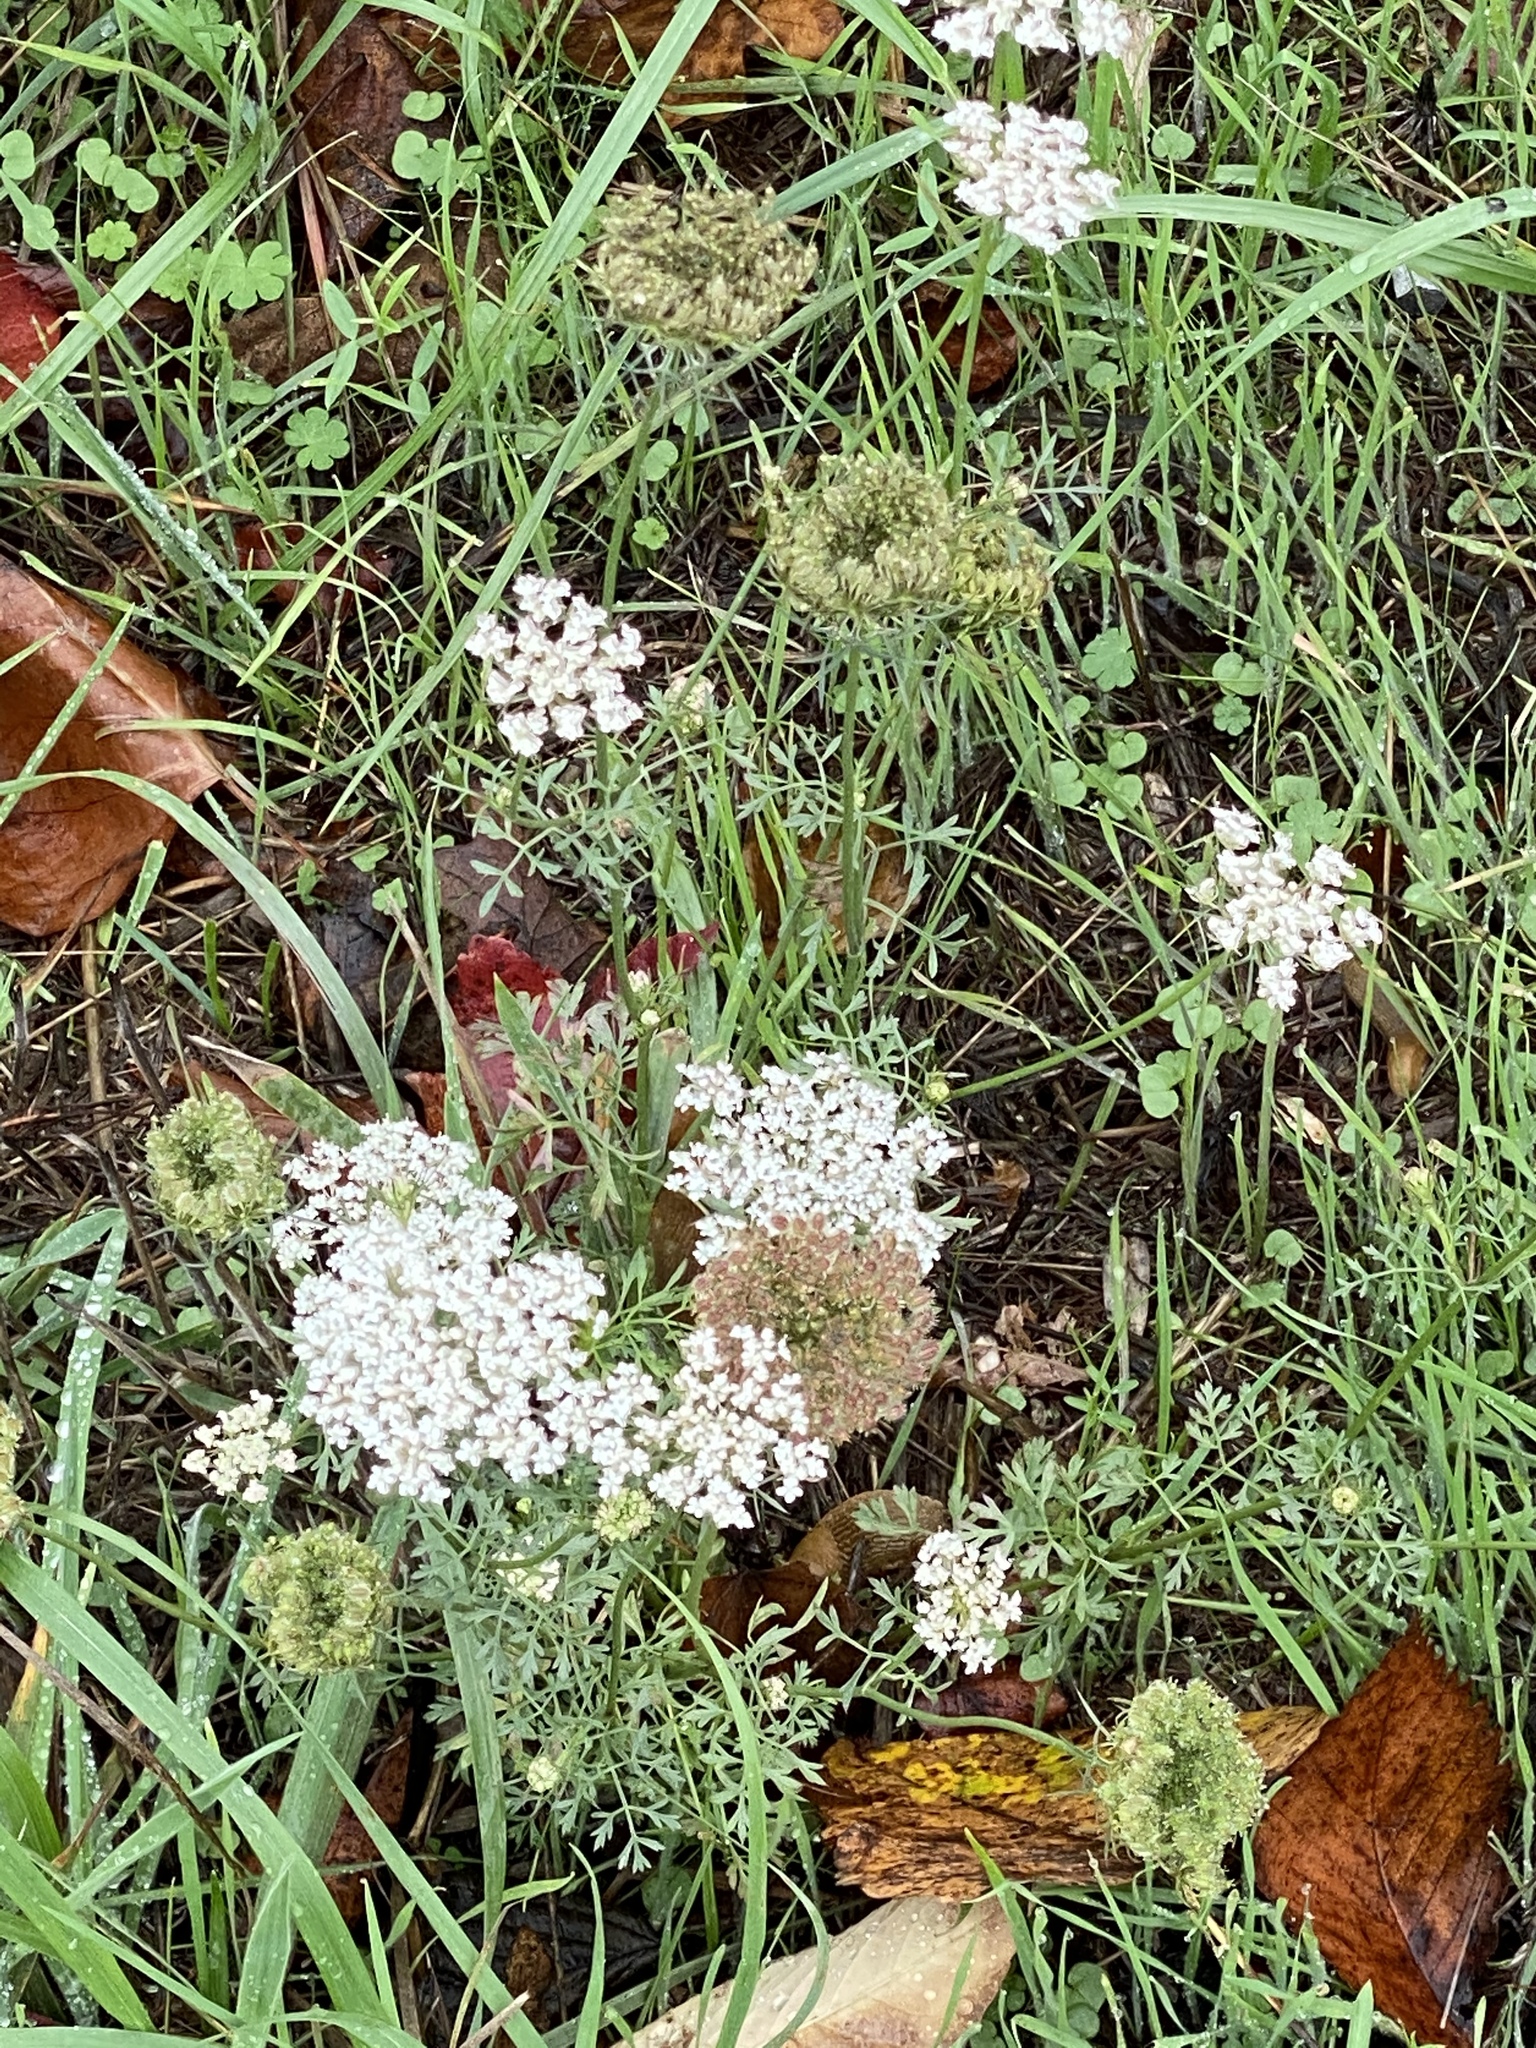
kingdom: Plantae
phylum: Tracheophyta
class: Magnoliopsida
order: Apiales
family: Apiaceae
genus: Daucus
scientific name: Daucus carota
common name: Wild carrot
